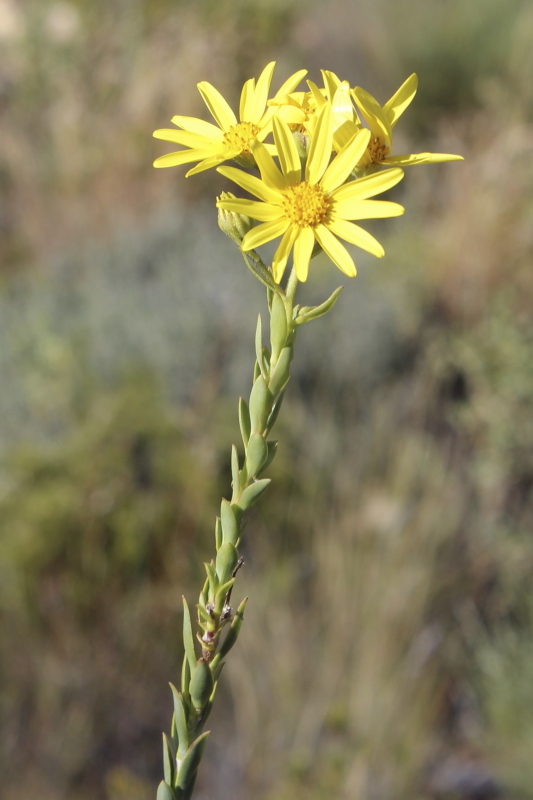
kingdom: Plantae
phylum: Tracheophyta
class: Magnoliopsida
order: Asterales
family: Asteraceae
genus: Osteospermum
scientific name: Osteospermum imbricatum
